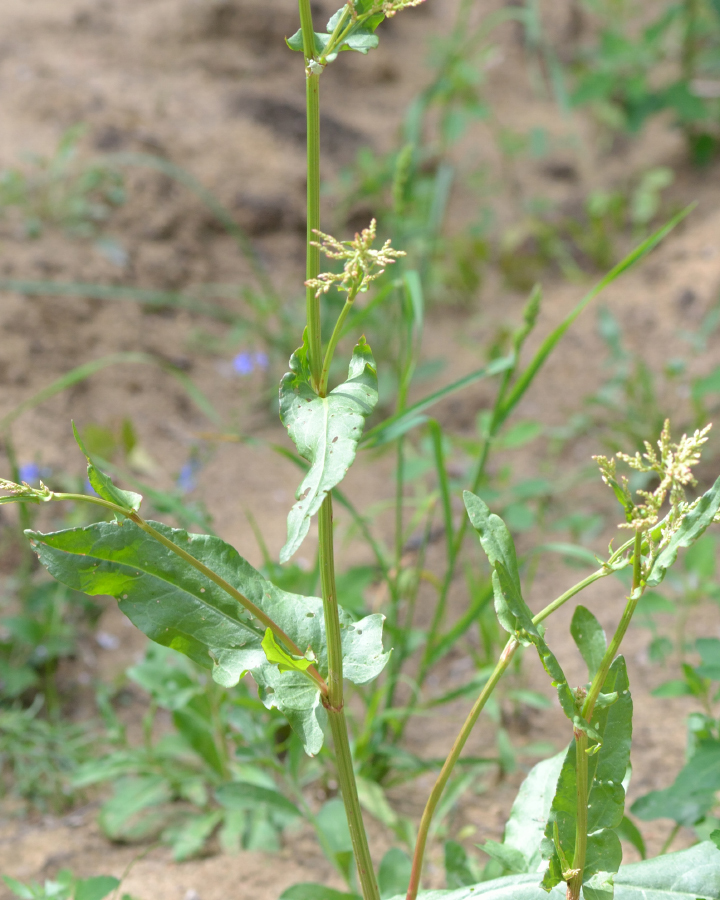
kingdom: Plantae
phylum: Tracheophyta
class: Magnoliopsida
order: Caryophyllales
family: Polygonaceae
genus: Rumex
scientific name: Rumex thyrsiflorus
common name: Garden sorrel
